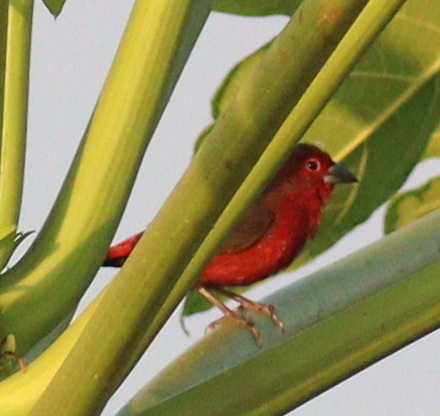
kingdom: Animalia
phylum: Chordata
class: Aves
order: Passeriformes
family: Estrildidae
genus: Lagonosticta
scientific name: Lagonosticta rubricata
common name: African firefinch
